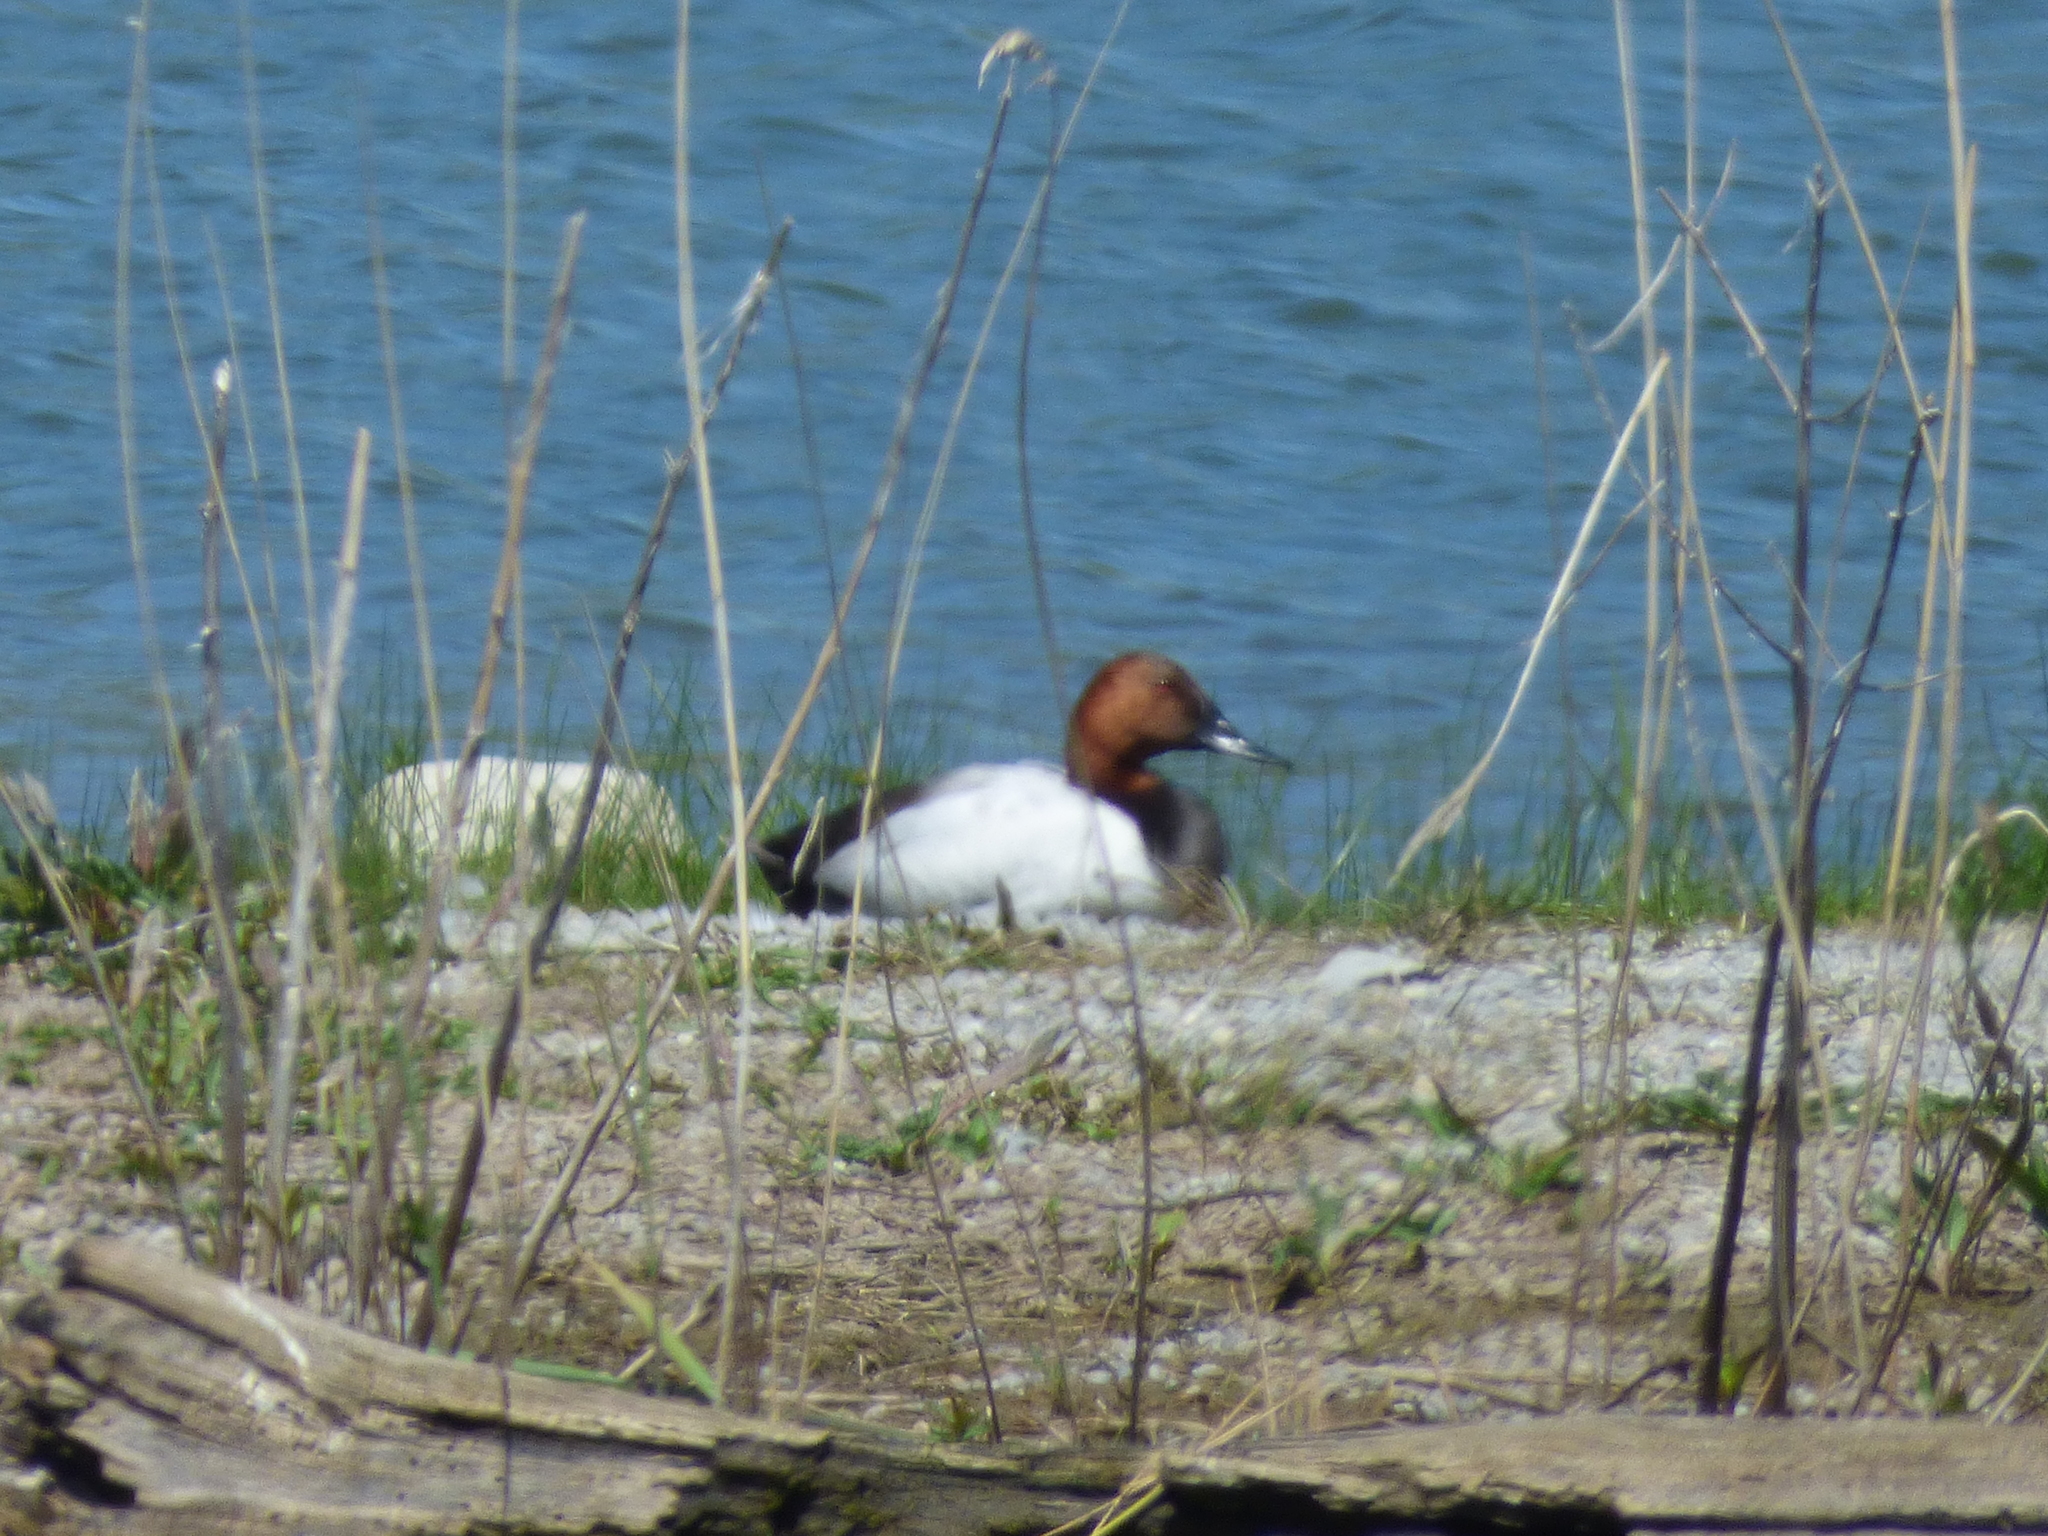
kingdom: Animalia
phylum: Chordata
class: Aves
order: Anseriformes
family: Anatidae
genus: Aythya
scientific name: Aythya valisineria
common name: Canvasback
